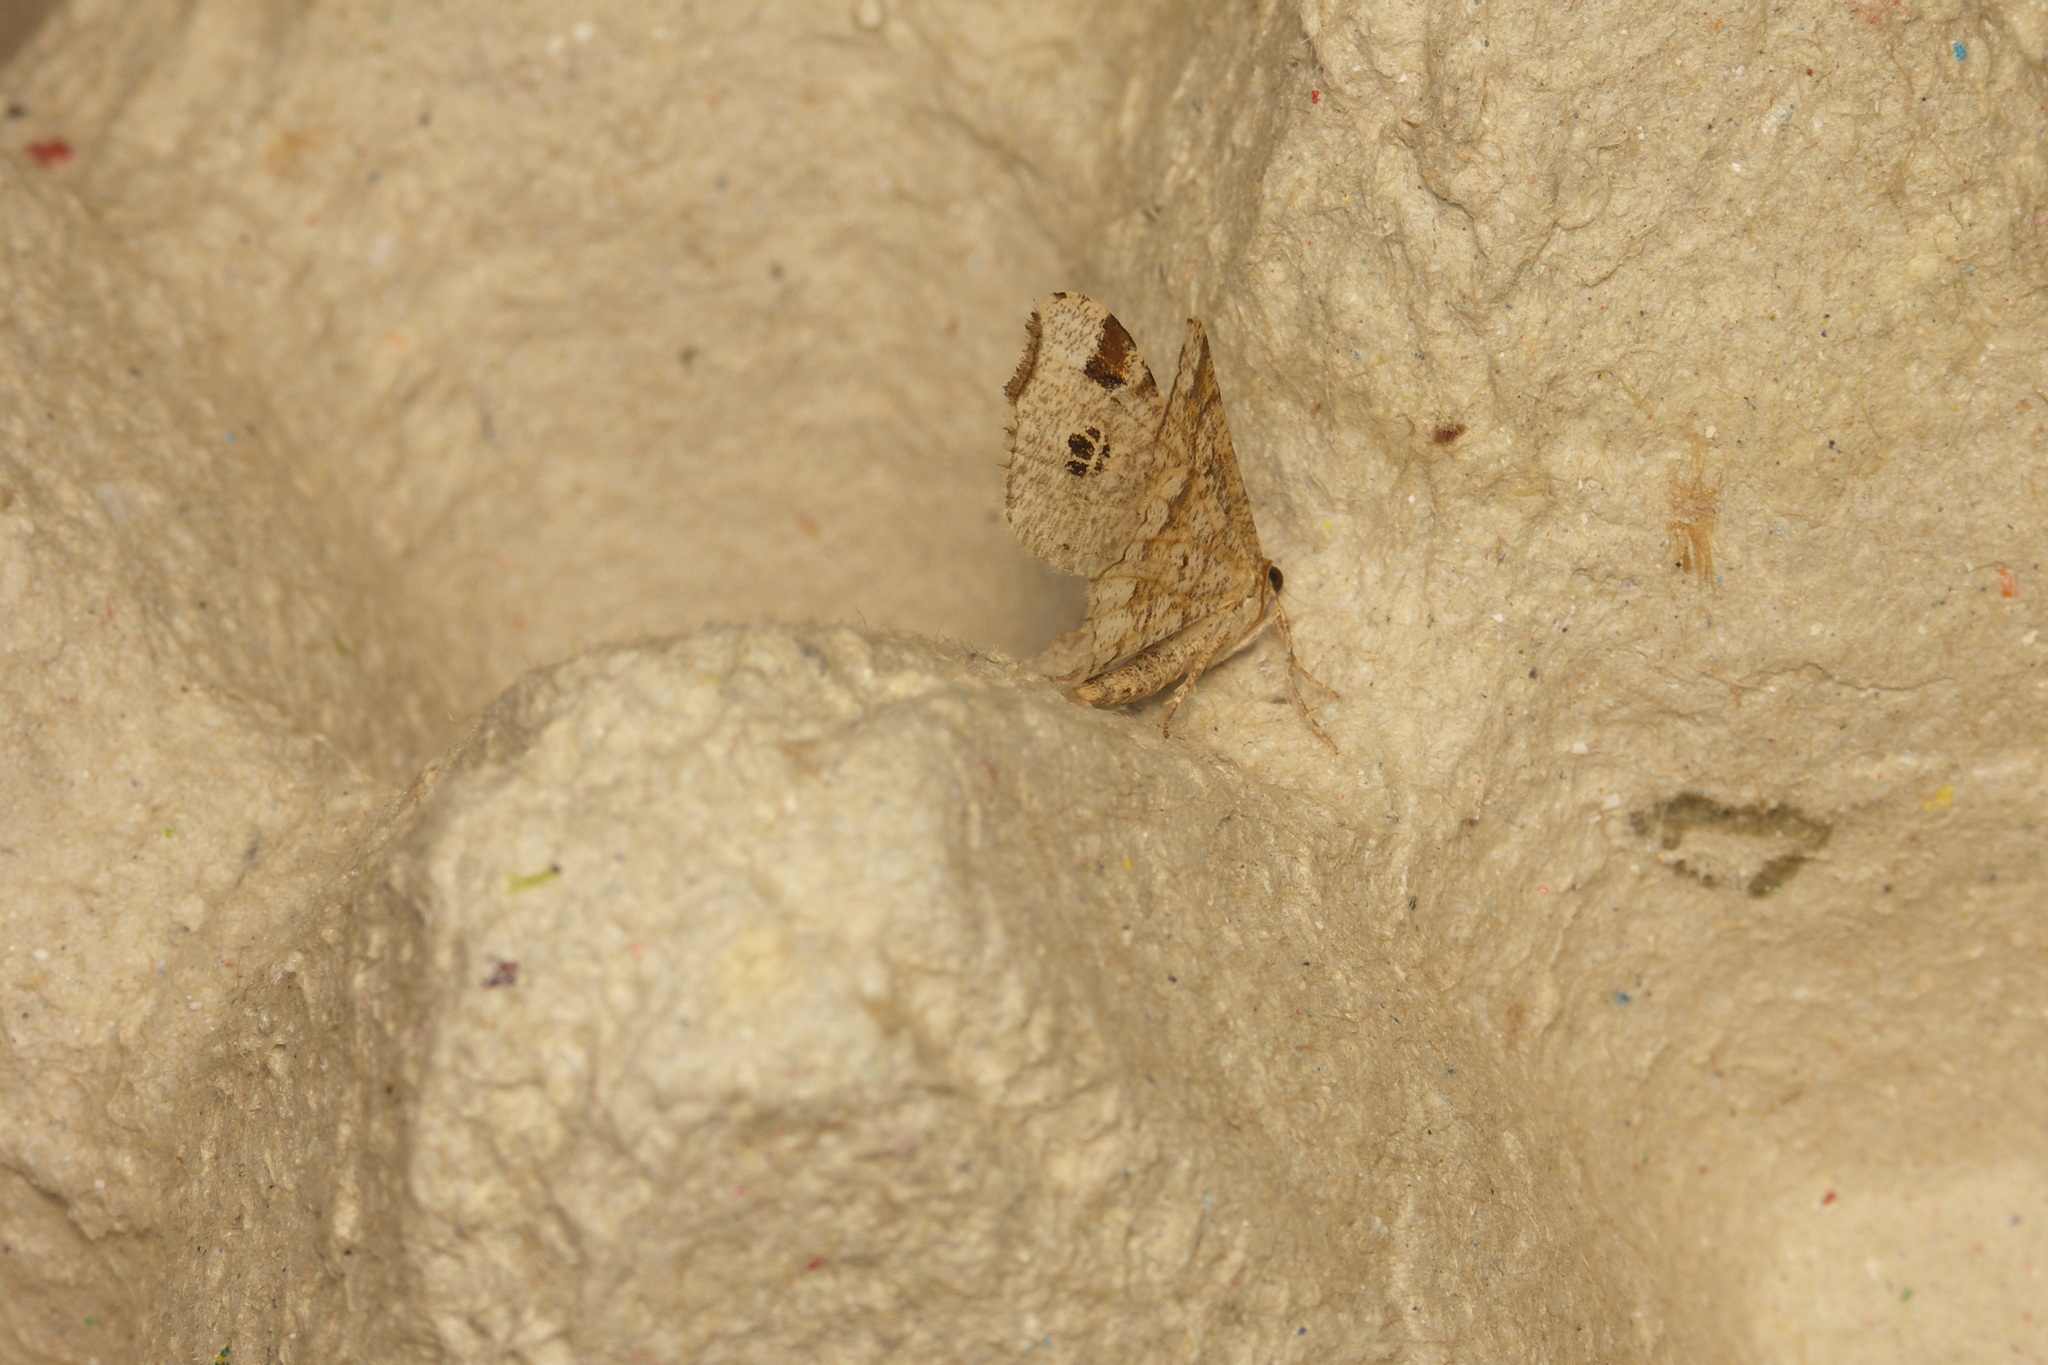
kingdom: Animalia
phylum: Arthropoda
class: Insecta
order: Lepidoptera
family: Geometridae
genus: Macaria
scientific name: Macaria notata
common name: Peacock moth
